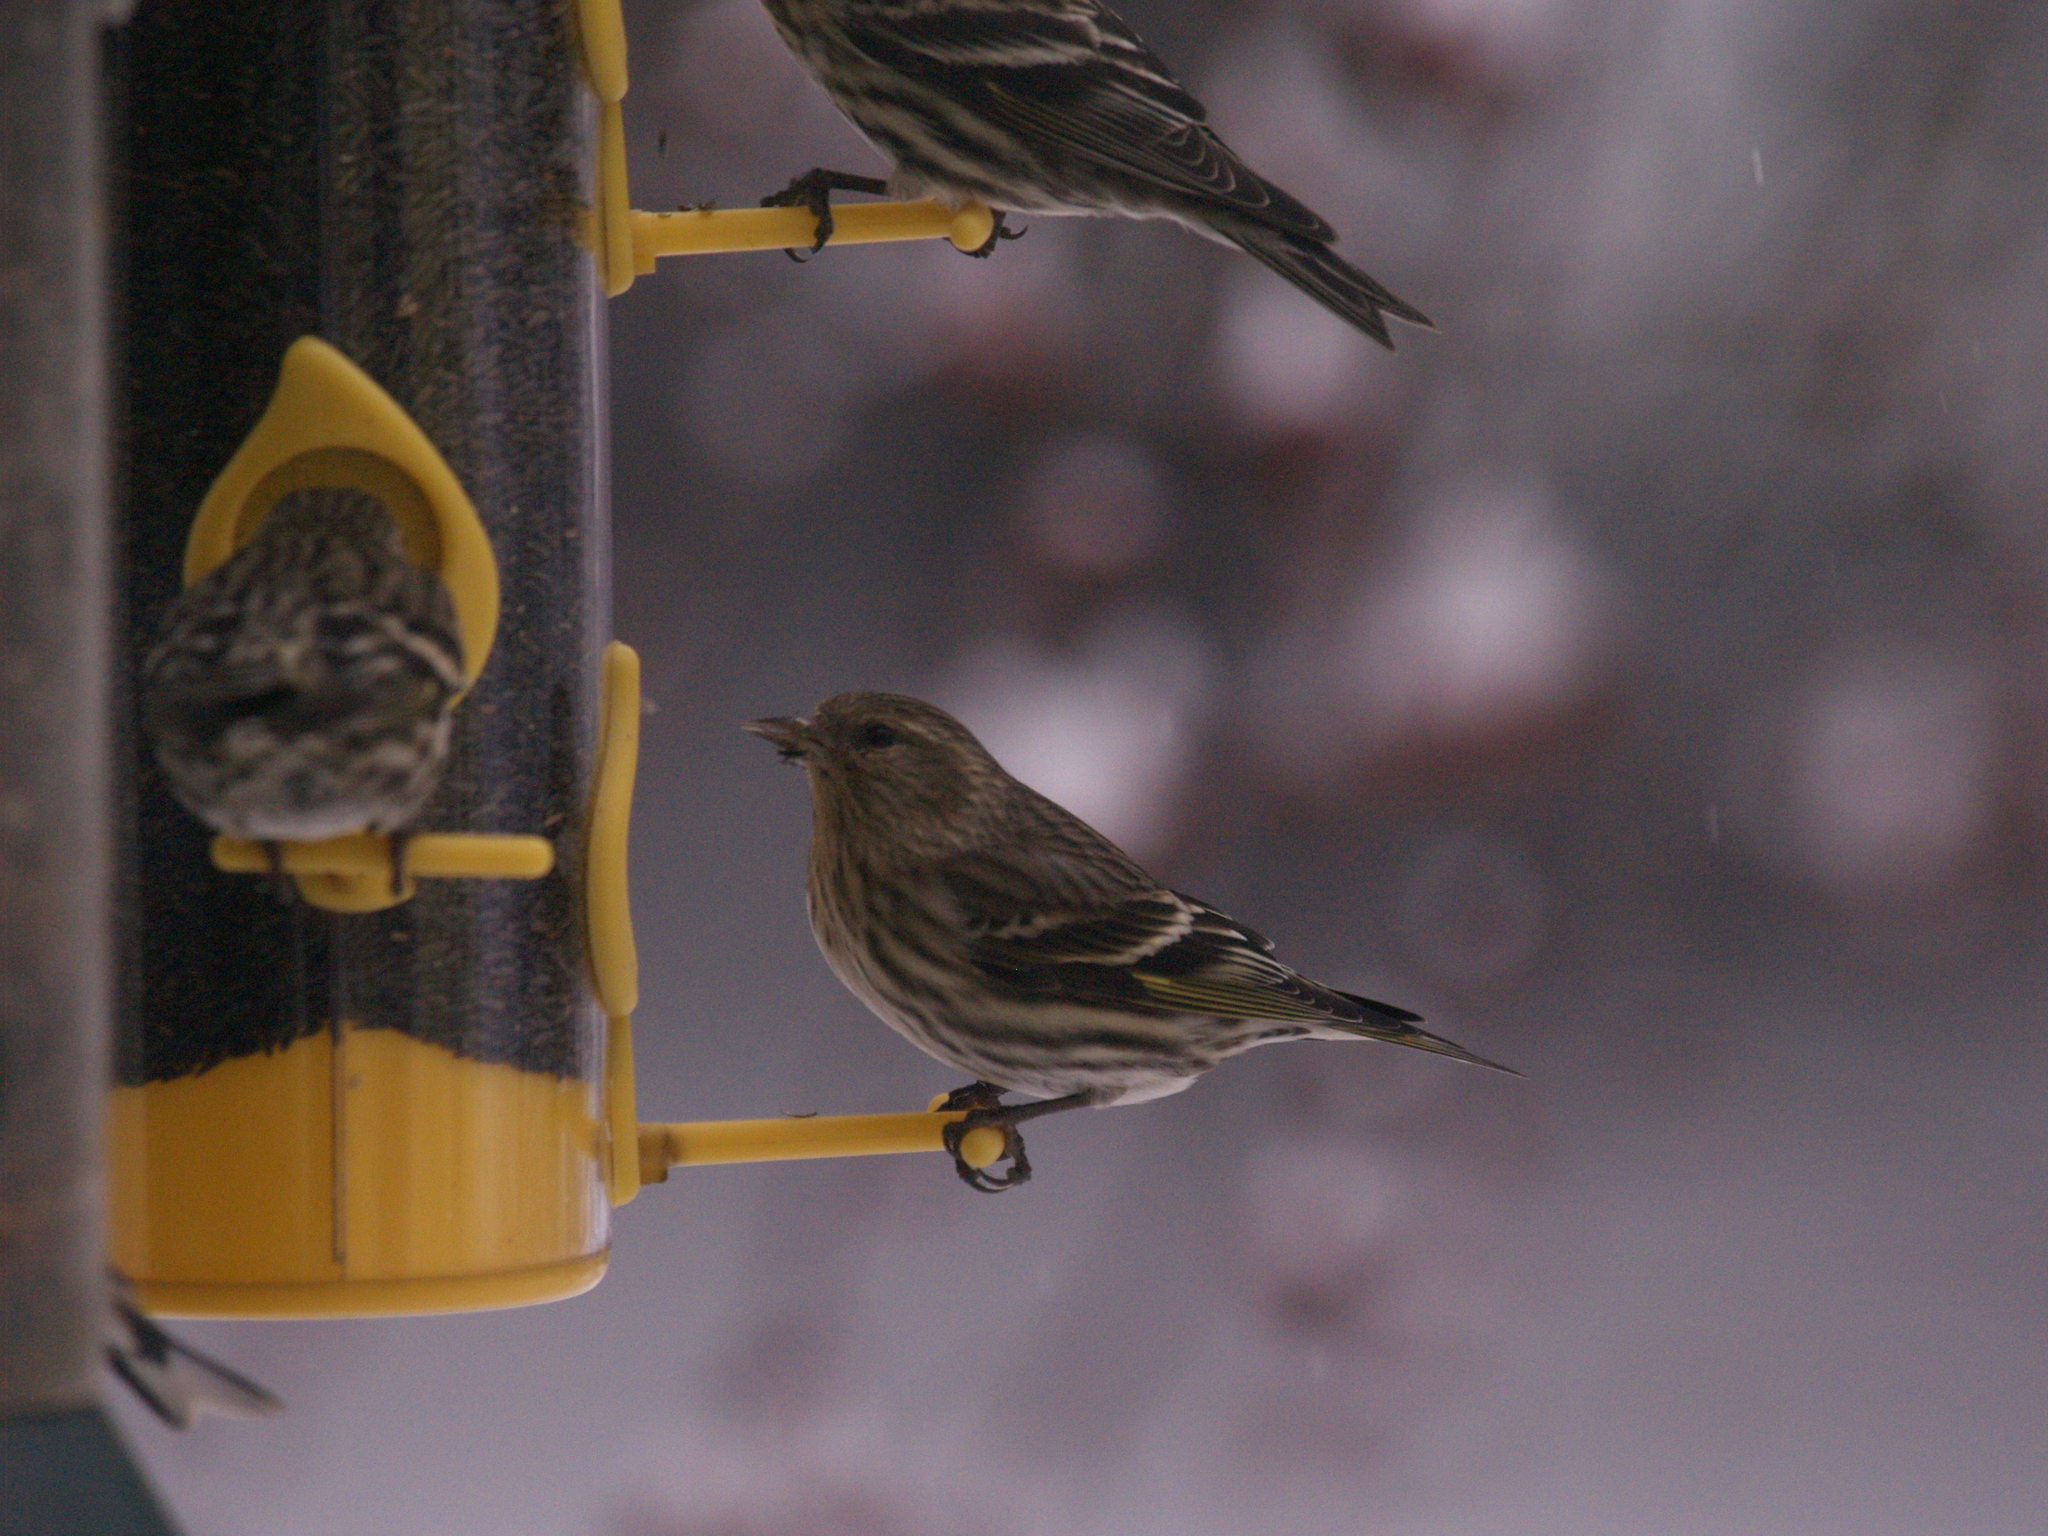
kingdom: Animalia
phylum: Chordata
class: Aves
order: Passeriformes
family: Fringillidae
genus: Spinus
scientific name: Spinus pinus
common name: Pine siskin
